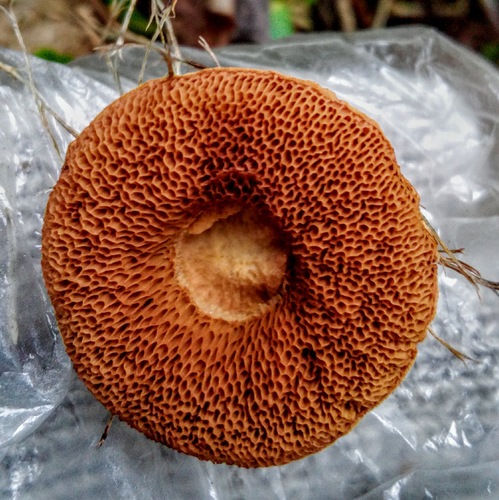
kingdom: Fungi
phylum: Basidiomycota
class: Agaricomycetes
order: Boletales
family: Boletaceae
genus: Chalciporus
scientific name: Chalciporus piperatus
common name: Peppery bolete
